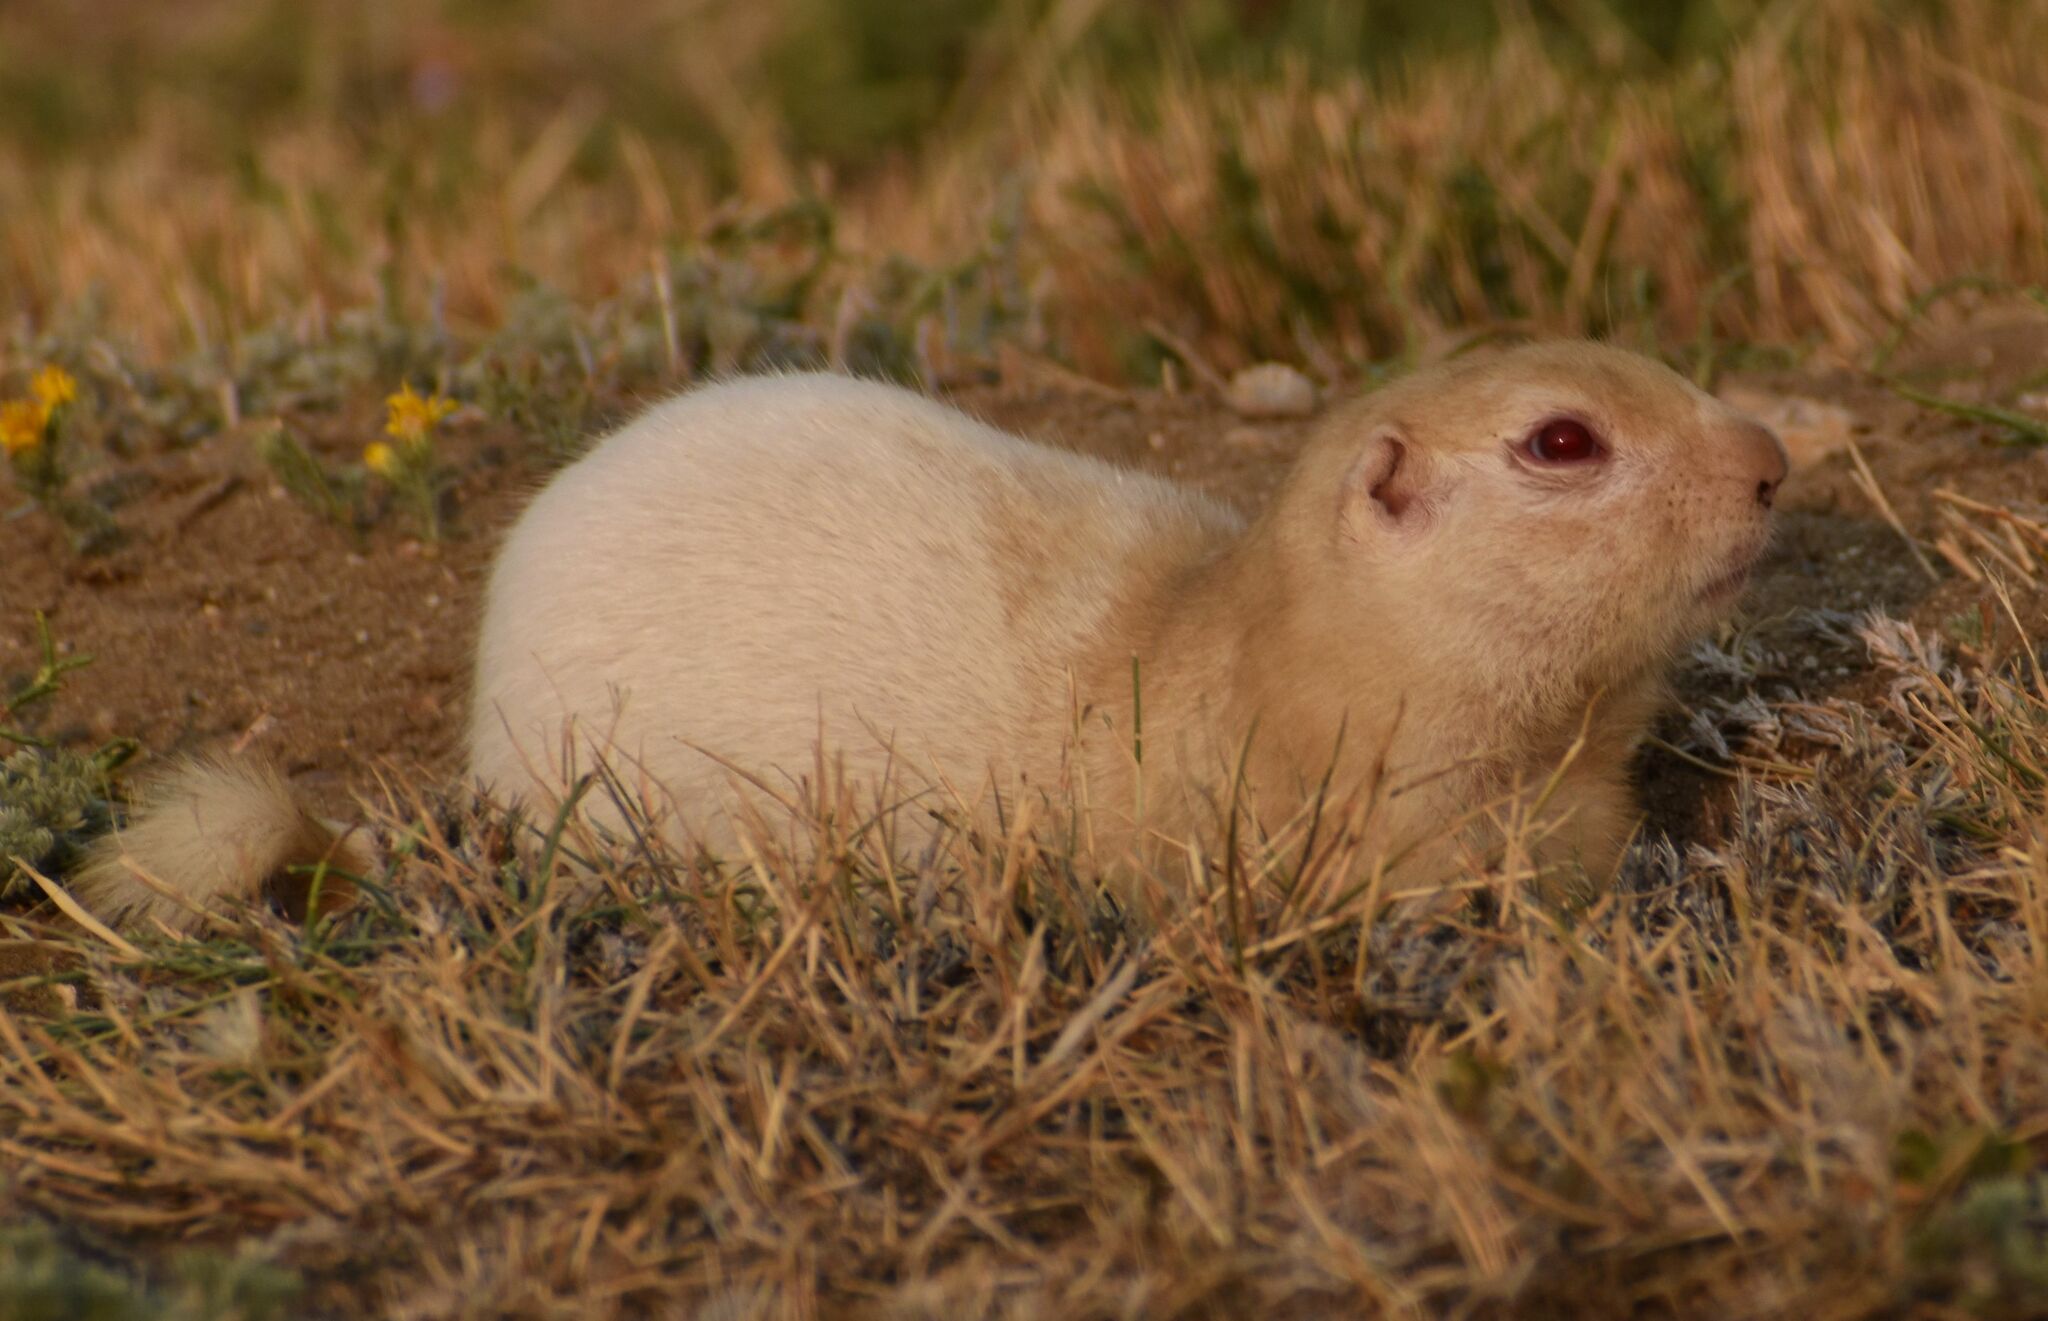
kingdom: Animalia
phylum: Chordata
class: Mammalia
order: Rodentia
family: Sciuridae
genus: Urocitellus
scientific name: Urocitellus richardsonii
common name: Richardson's ground squirrel
